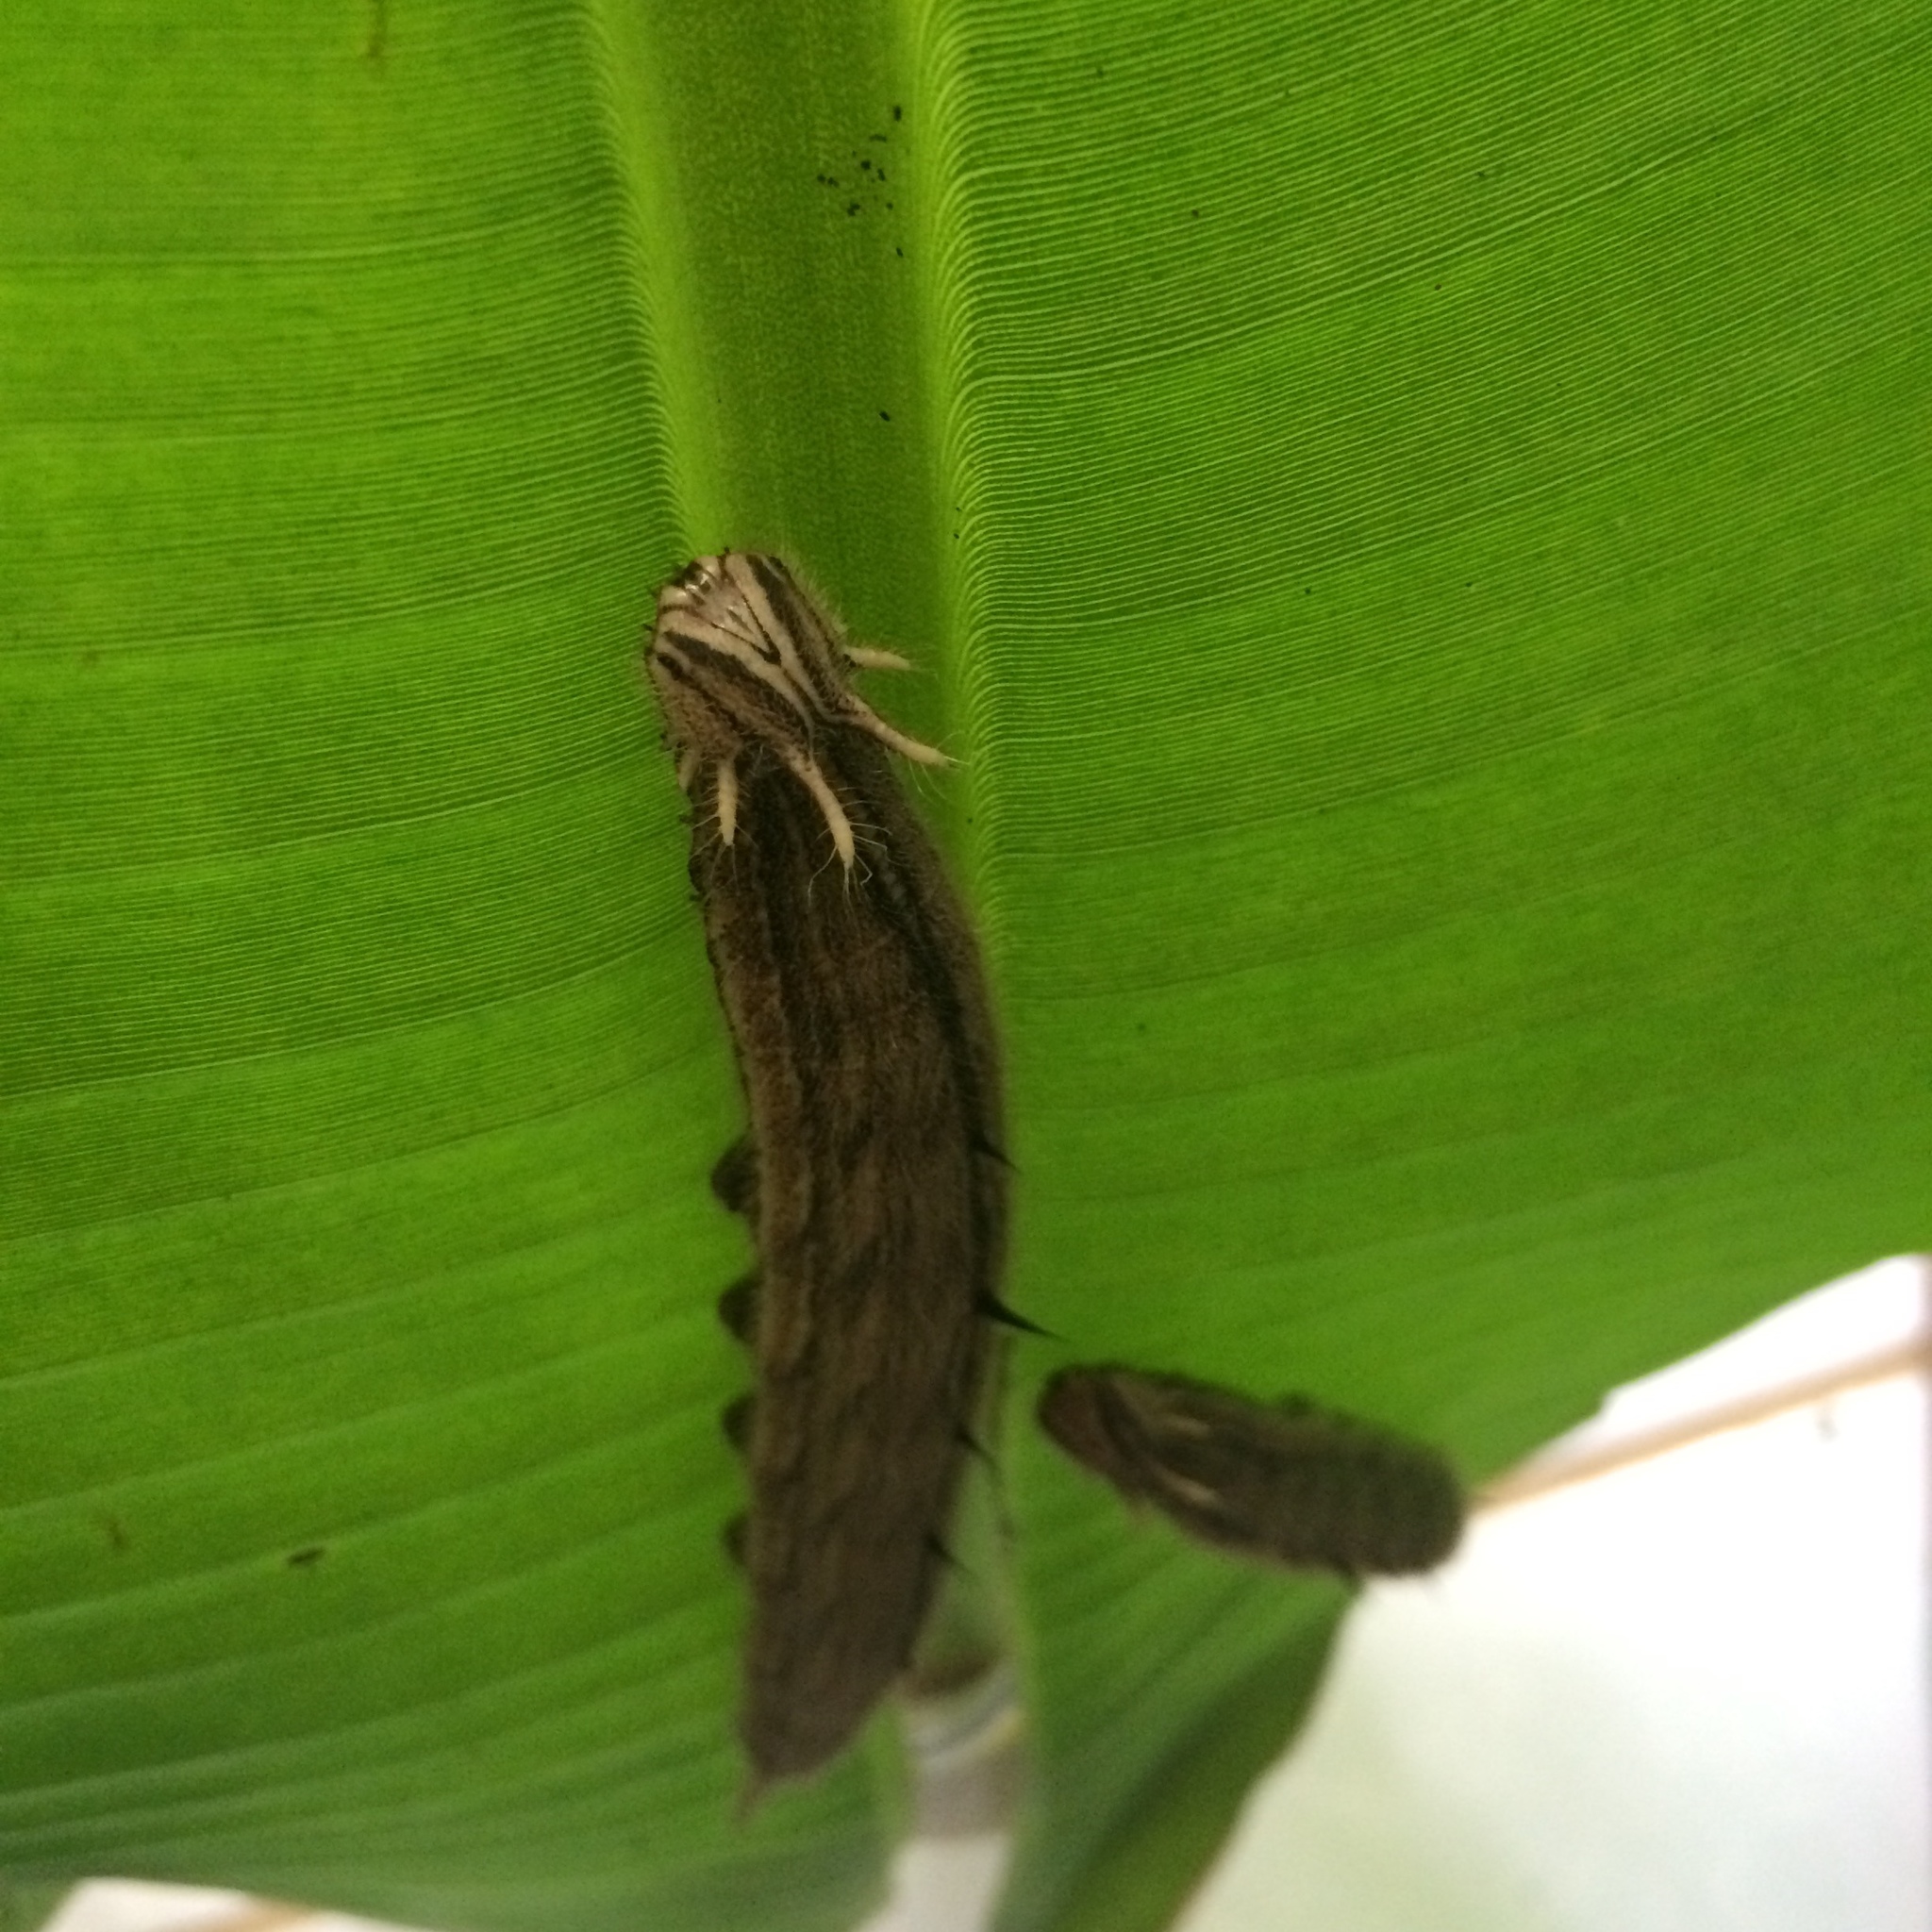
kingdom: Animalia
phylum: Arthropoda
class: Insecta
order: Lepidoptera
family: Nymphalidae
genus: Caligo
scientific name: Caligo telamonius
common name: Pale owl-butterfly
